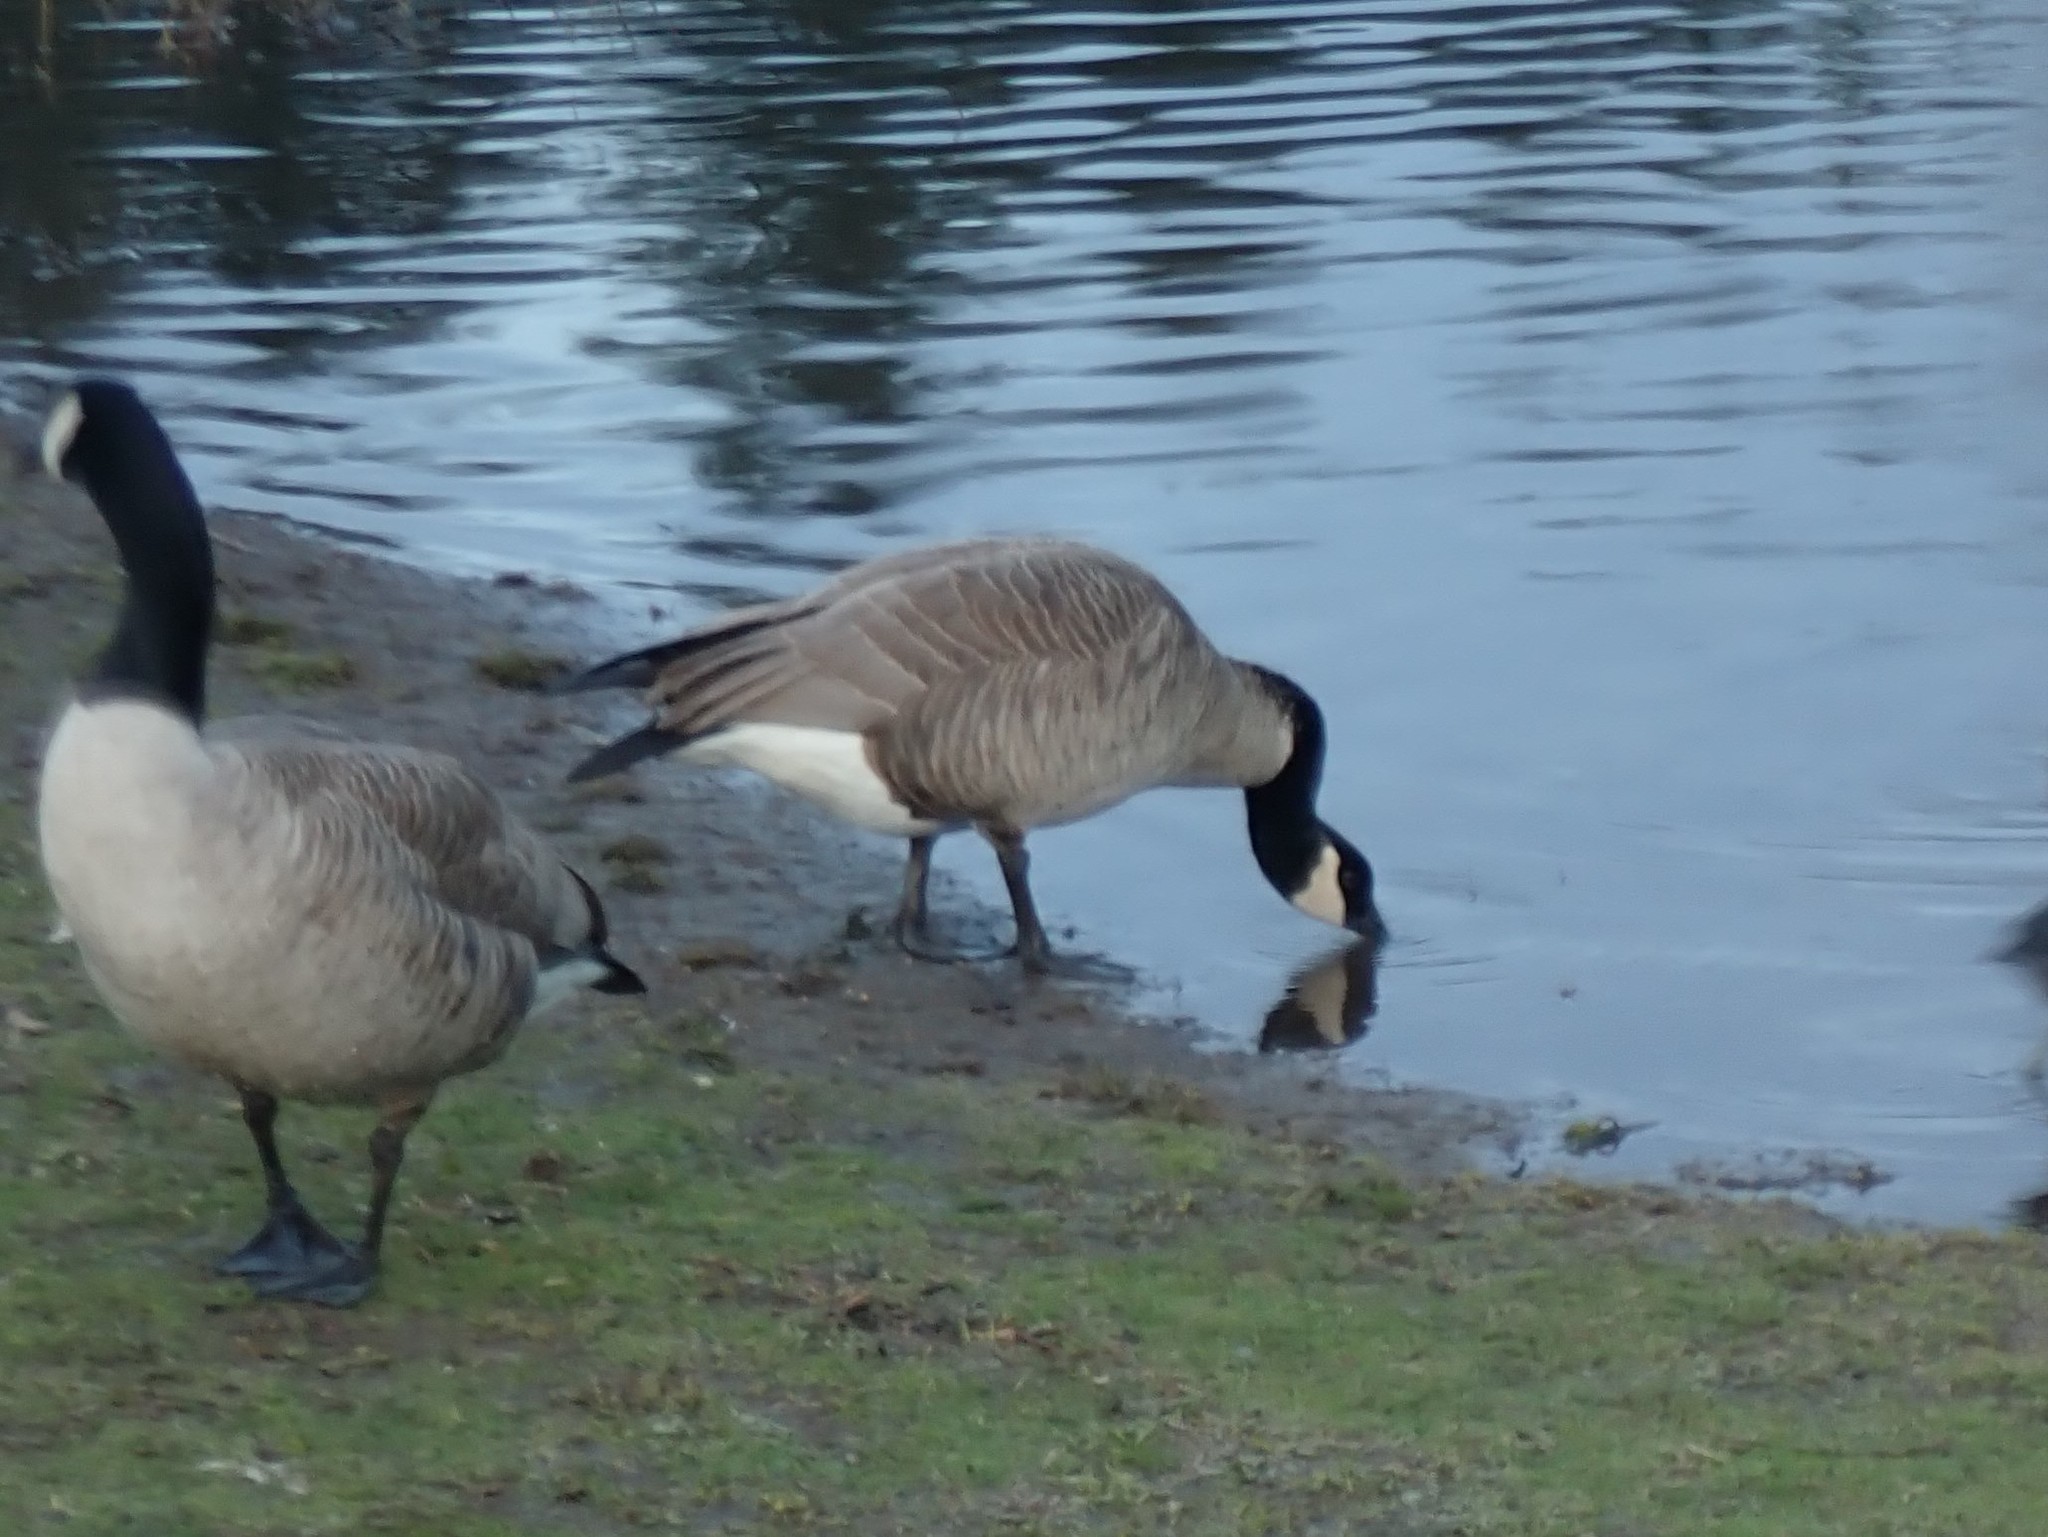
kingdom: Animalia
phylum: Chordata
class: Aves
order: Anseriformes
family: Anatidae
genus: Branta
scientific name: Branta canadensis
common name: Canada goose
